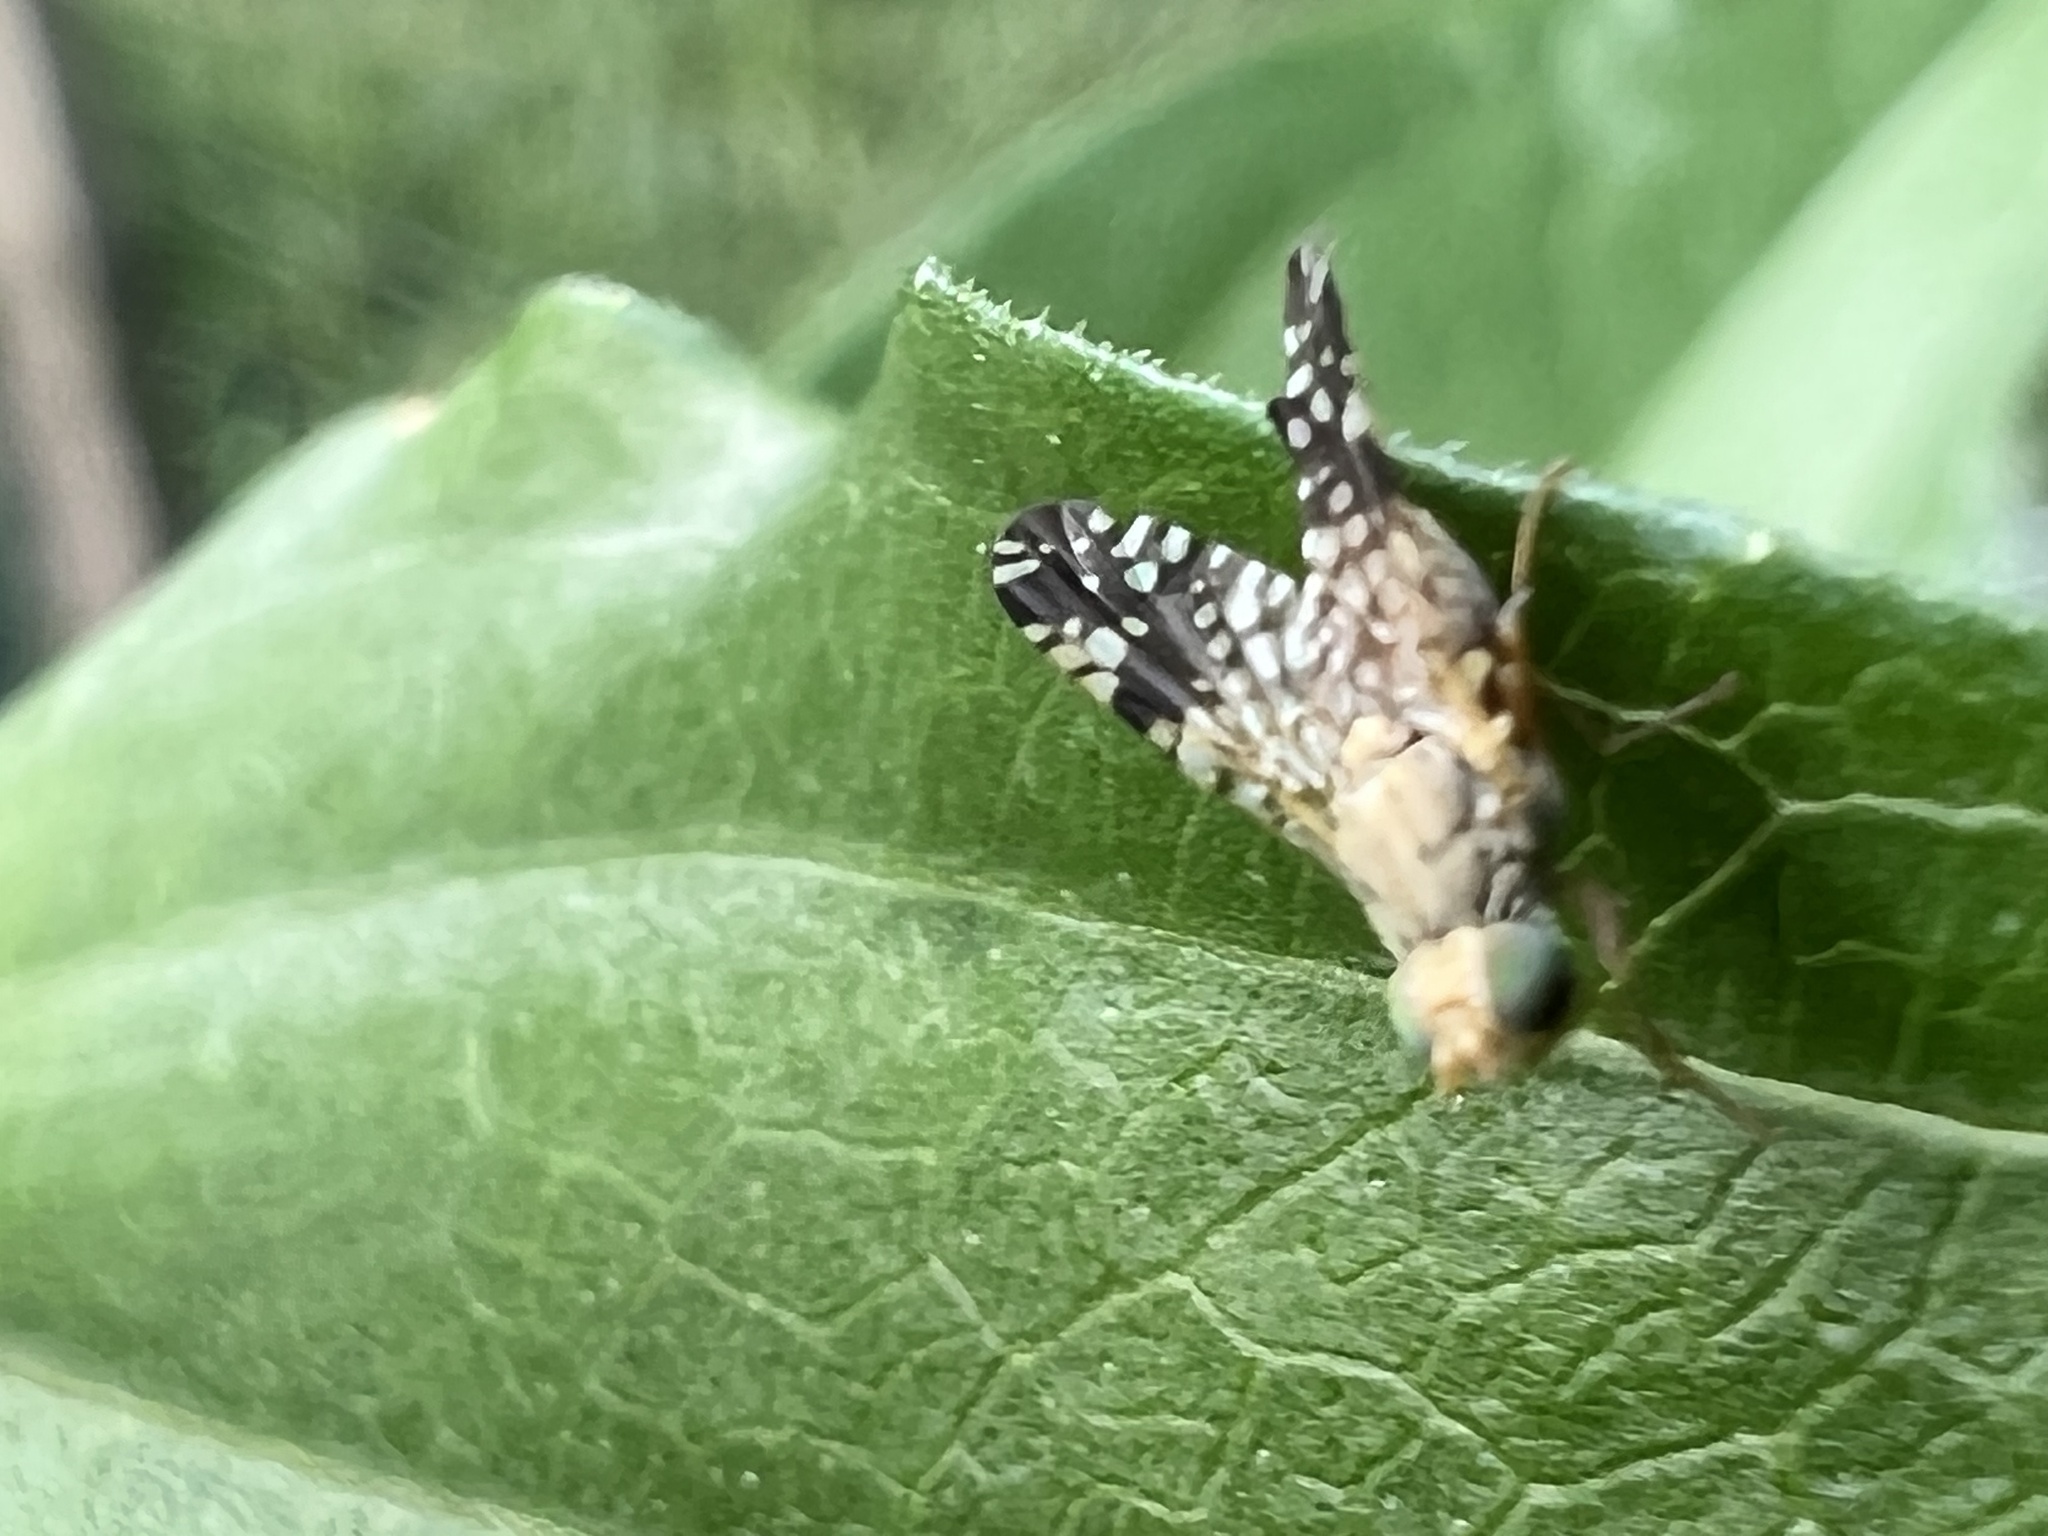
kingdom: Animalia
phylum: Arthropoda
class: Insecta
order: Diptera
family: Tephritidae
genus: Neotephritis
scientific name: Neotephritis finalis
